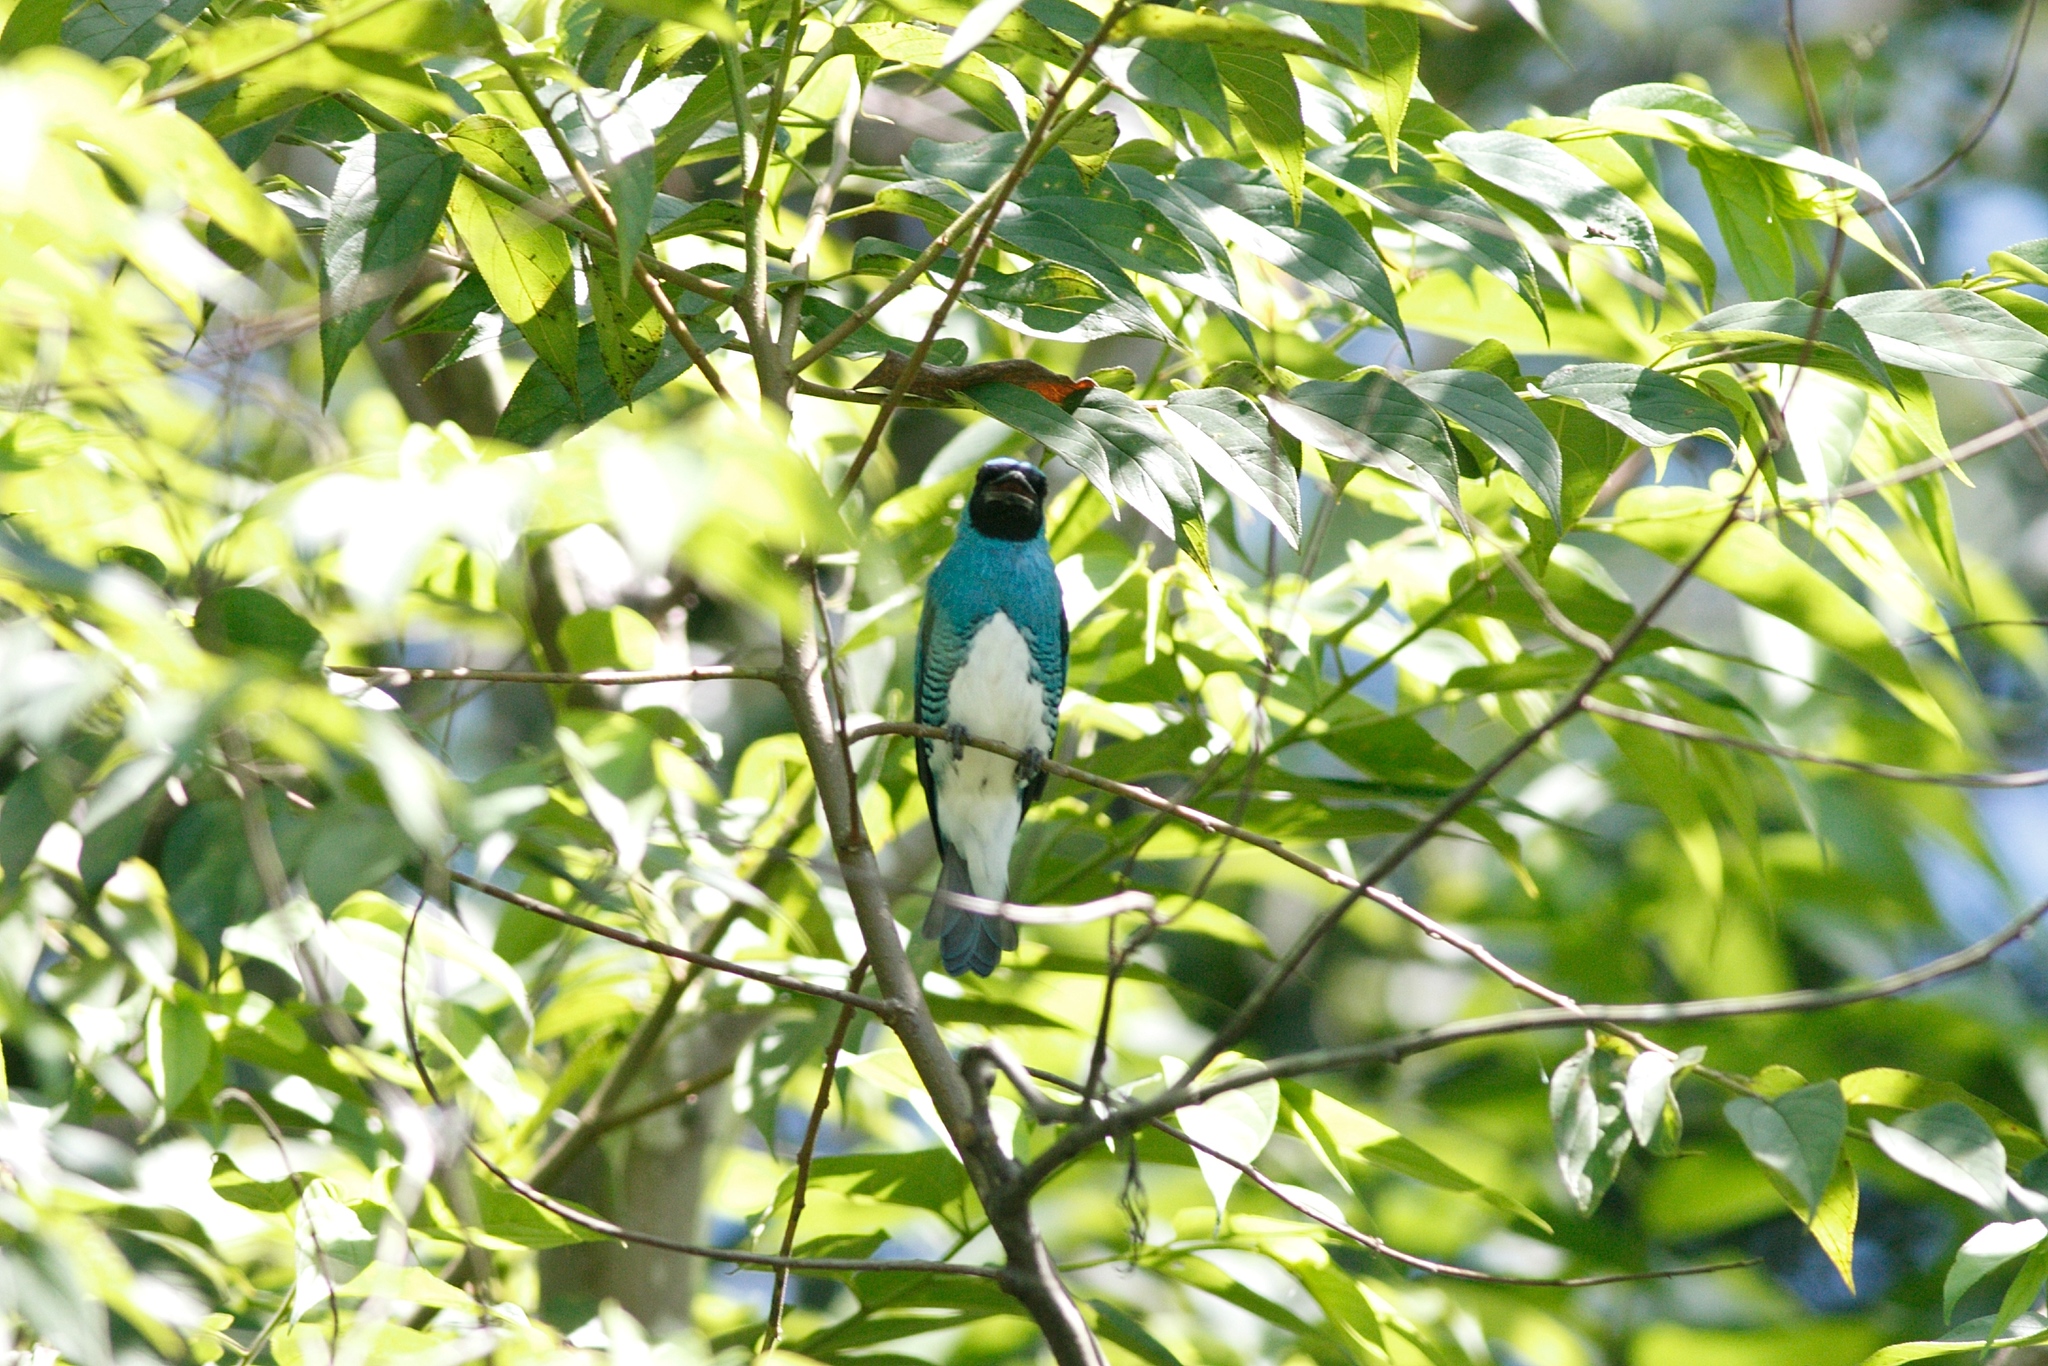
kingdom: Animalia
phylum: Chordata
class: Aves
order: Passeriformes
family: Thraupidae
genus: Tersina
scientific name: Tersina viridis
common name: Swallow tanager
